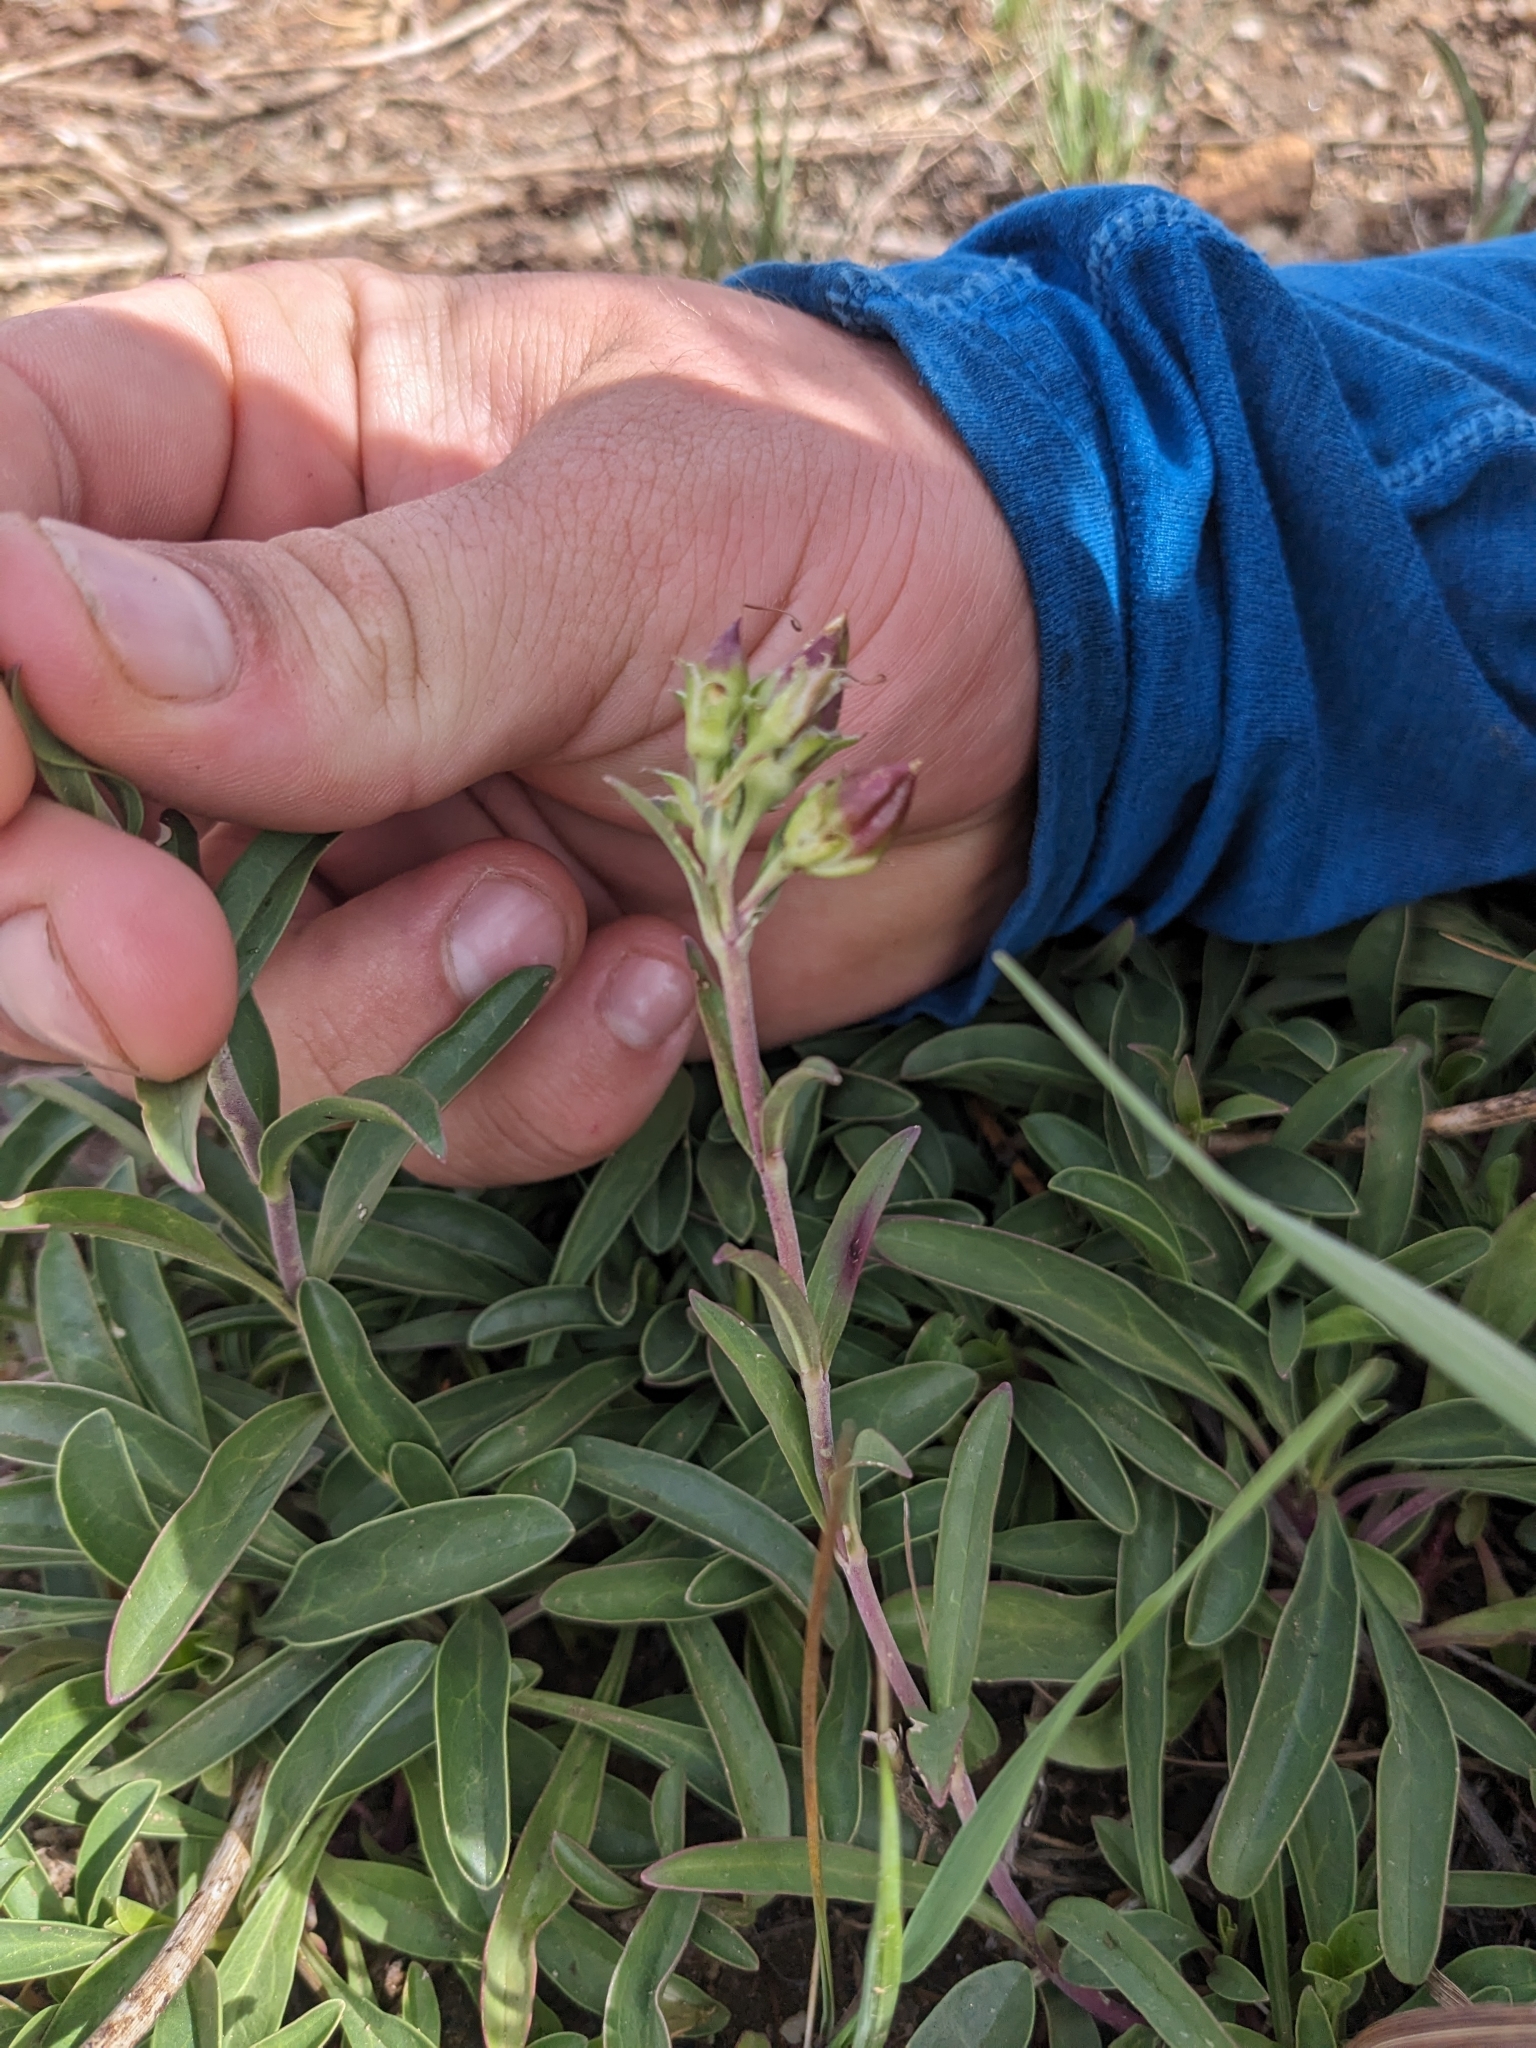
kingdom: Plantae
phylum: Tracheophyta
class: Magnoliopsida
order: Lamiales
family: Plantaginaceae
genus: Penstemon
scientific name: Penstemon deaveri
